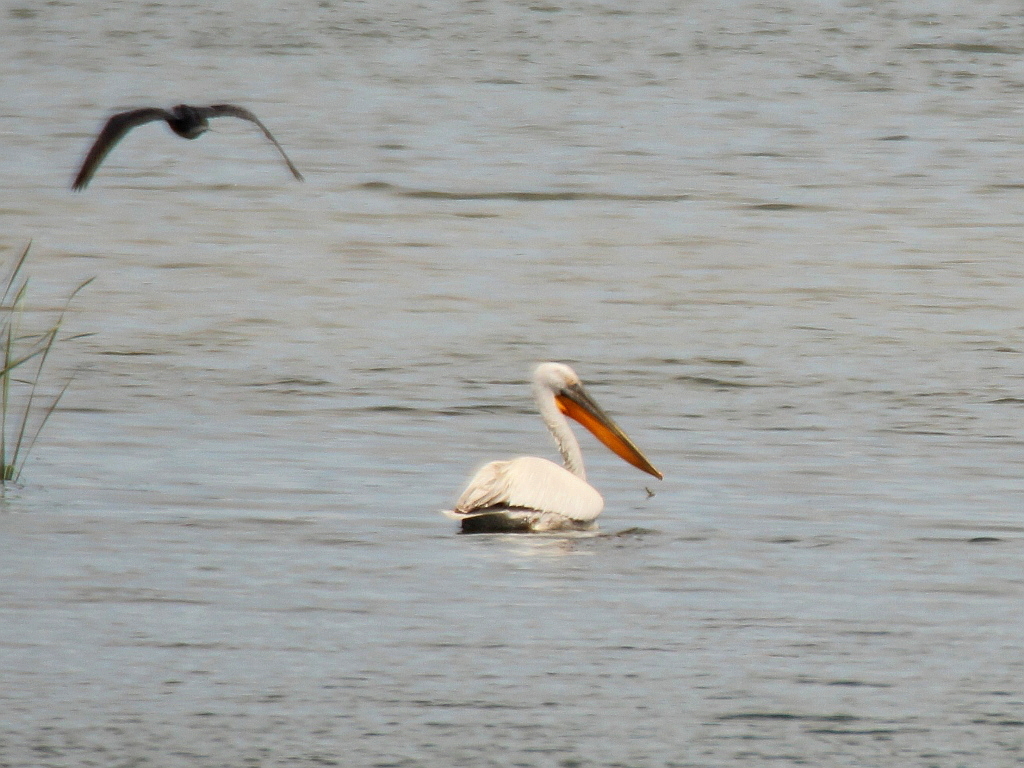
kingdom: Animalia
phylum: Chordata
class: Aves
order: Pelecaniformes
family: Pelecanidae
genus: Pelecanus
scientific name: Pelecanus crispus
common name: Dalmatian pelican
